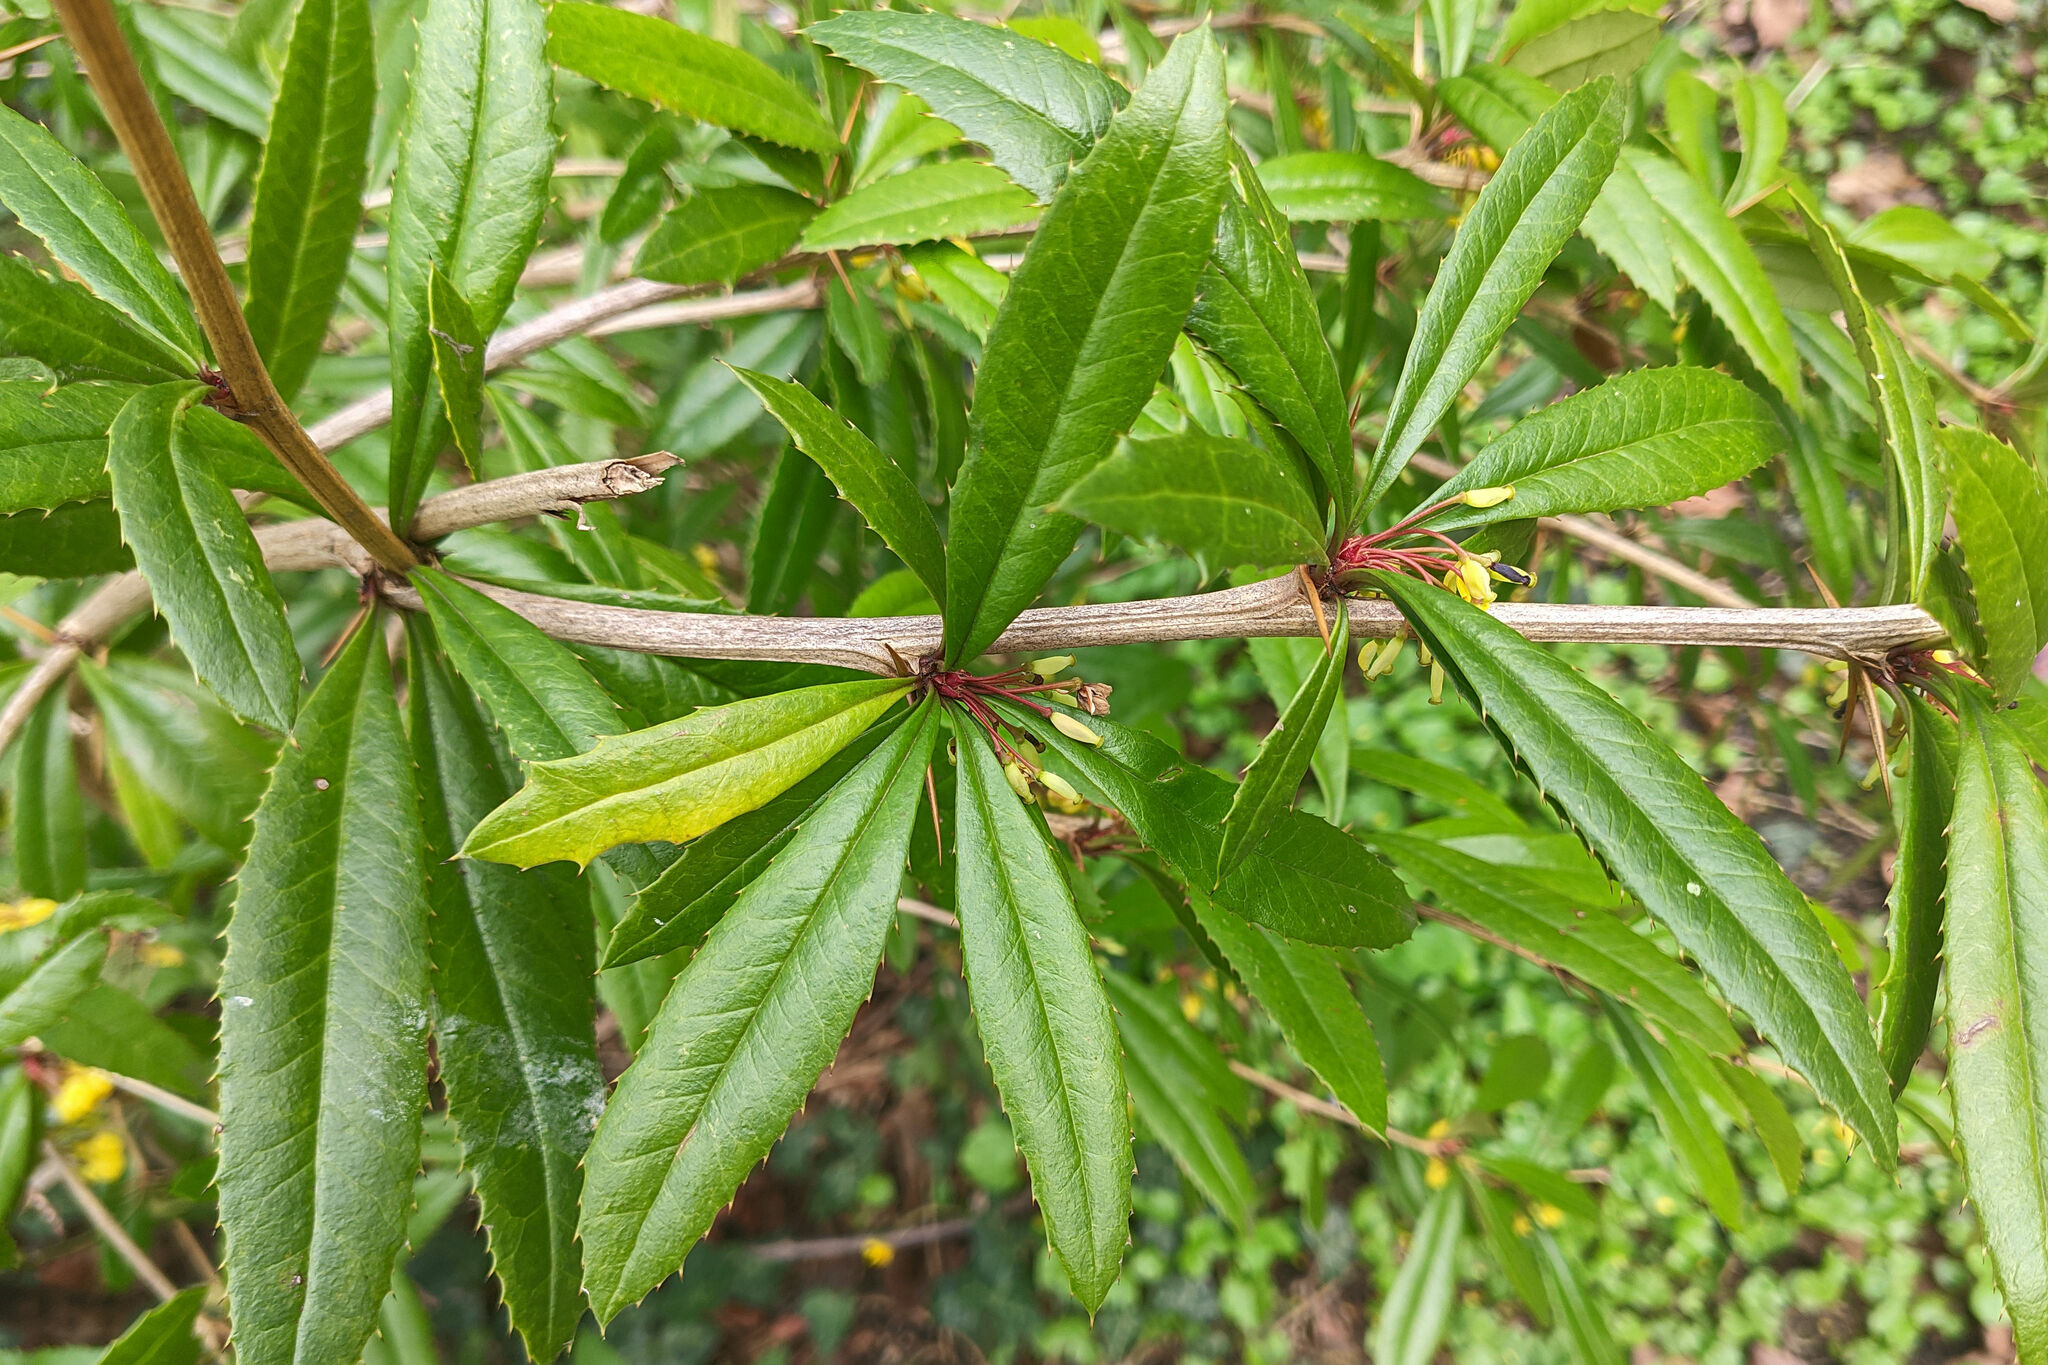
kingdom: Plantae
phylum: Tracheophyta
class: Magnoliopsida
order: Ranunculales
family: Berberidaceae
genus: Berberis
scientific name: Berberis julianae
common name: Wintergreen barberry
